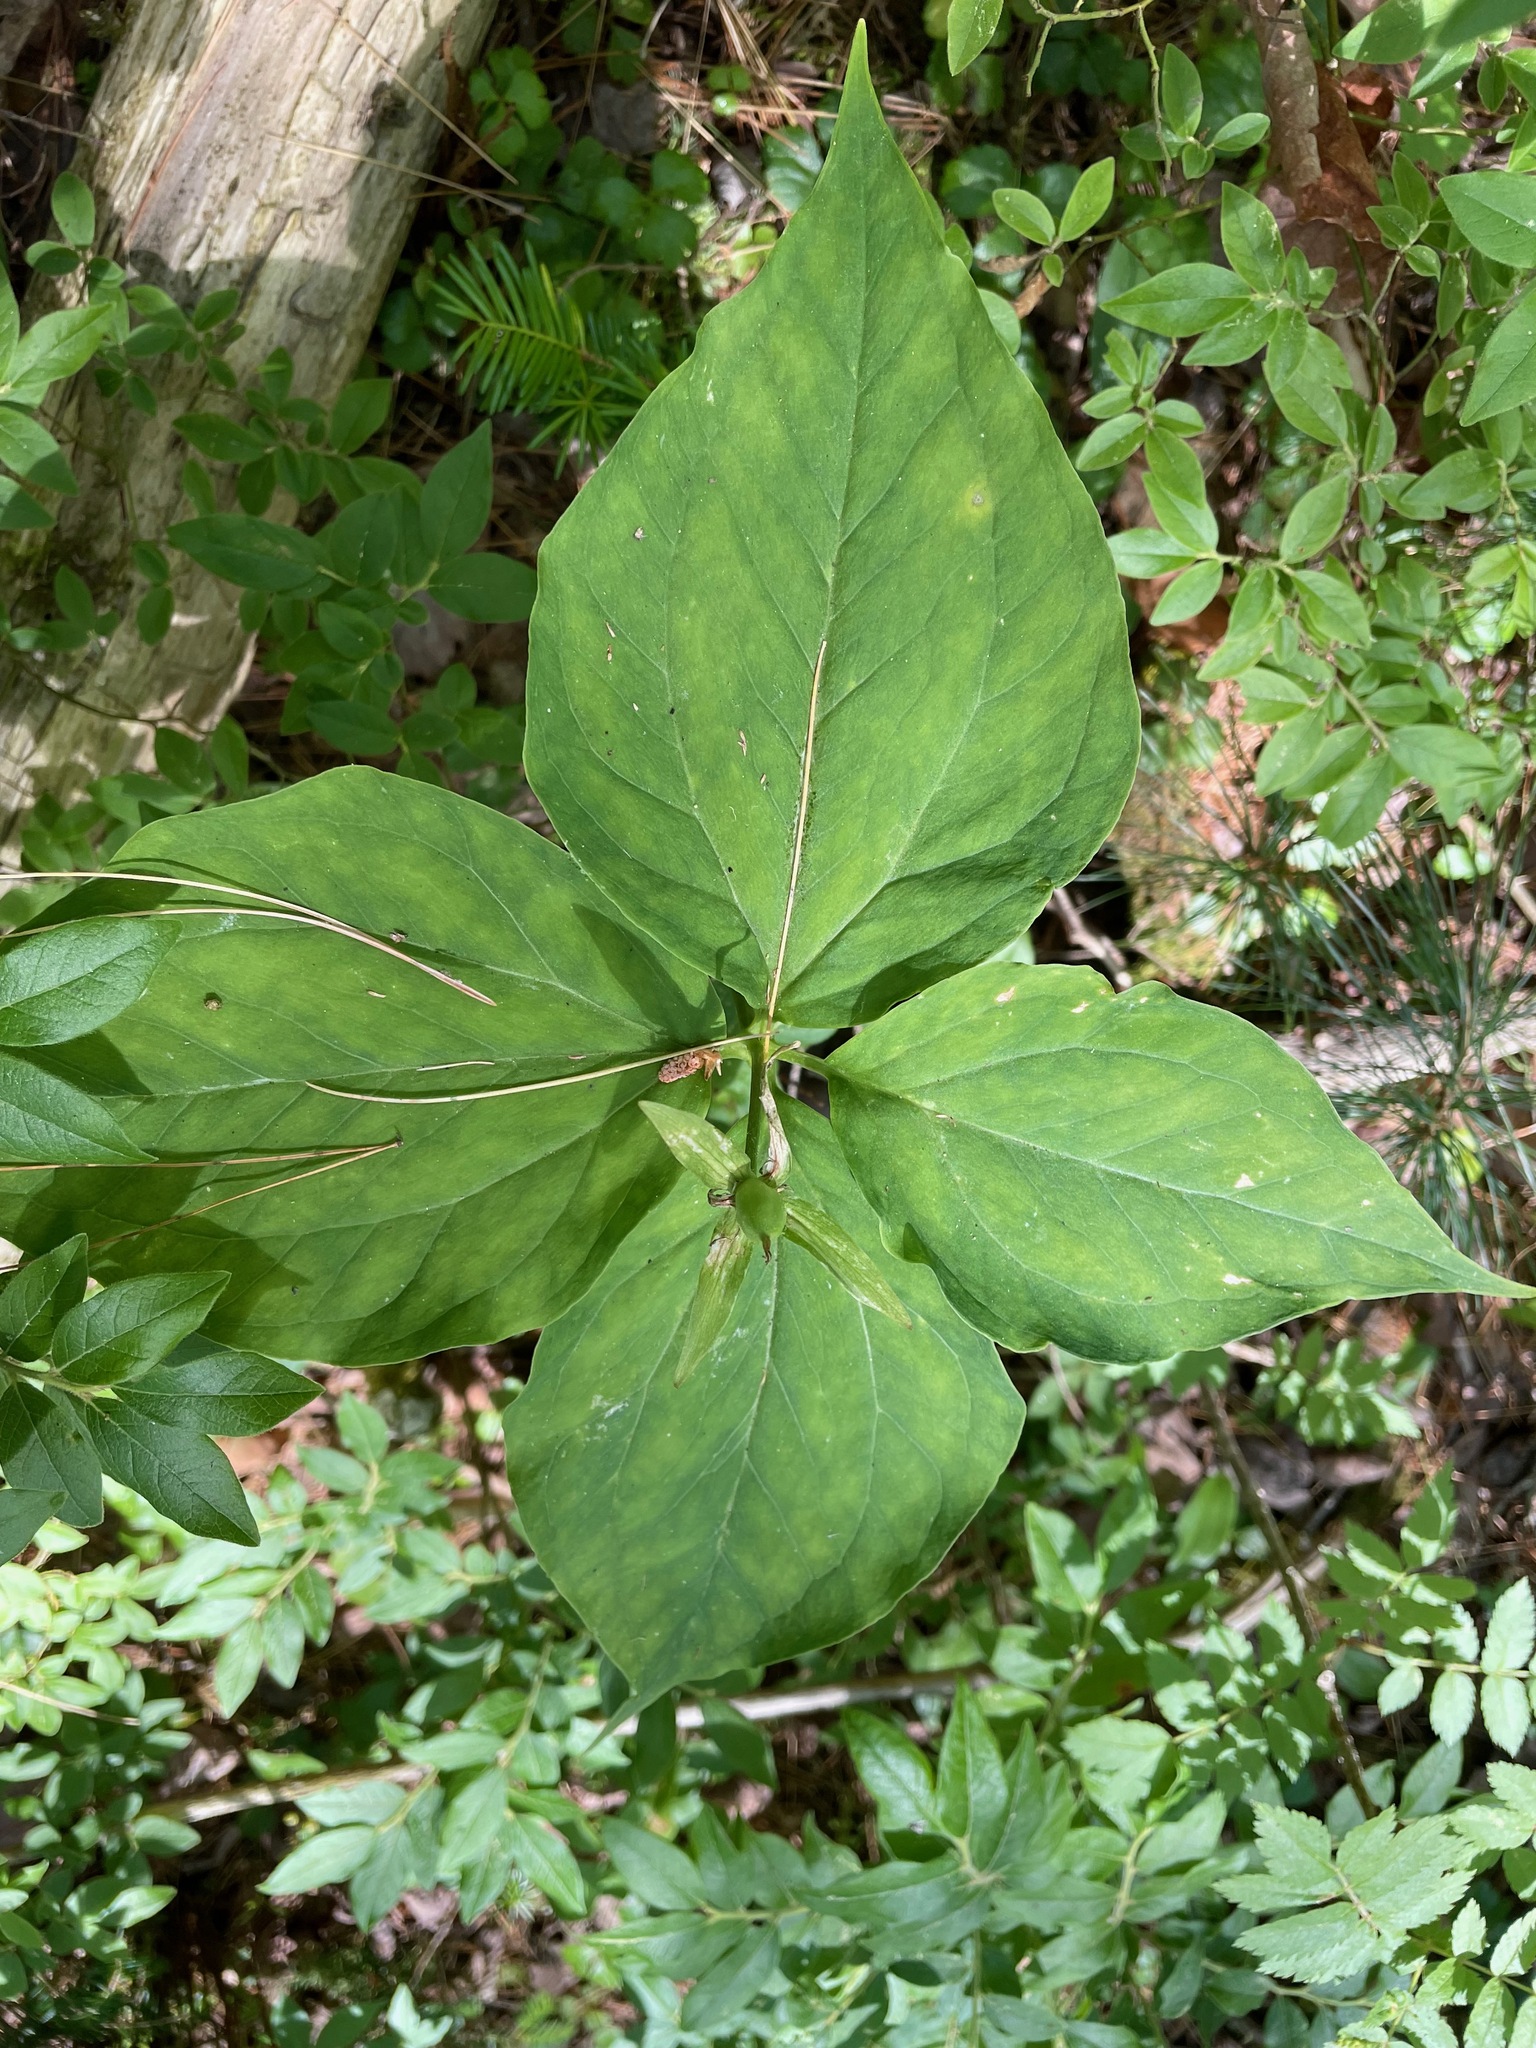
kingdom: Plantae
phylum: Tracheophyta
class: Liliopsida
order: Liliales
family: Melanthiaceae
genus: Trillium
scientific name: Trillium undulatum
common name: Paint trillium
